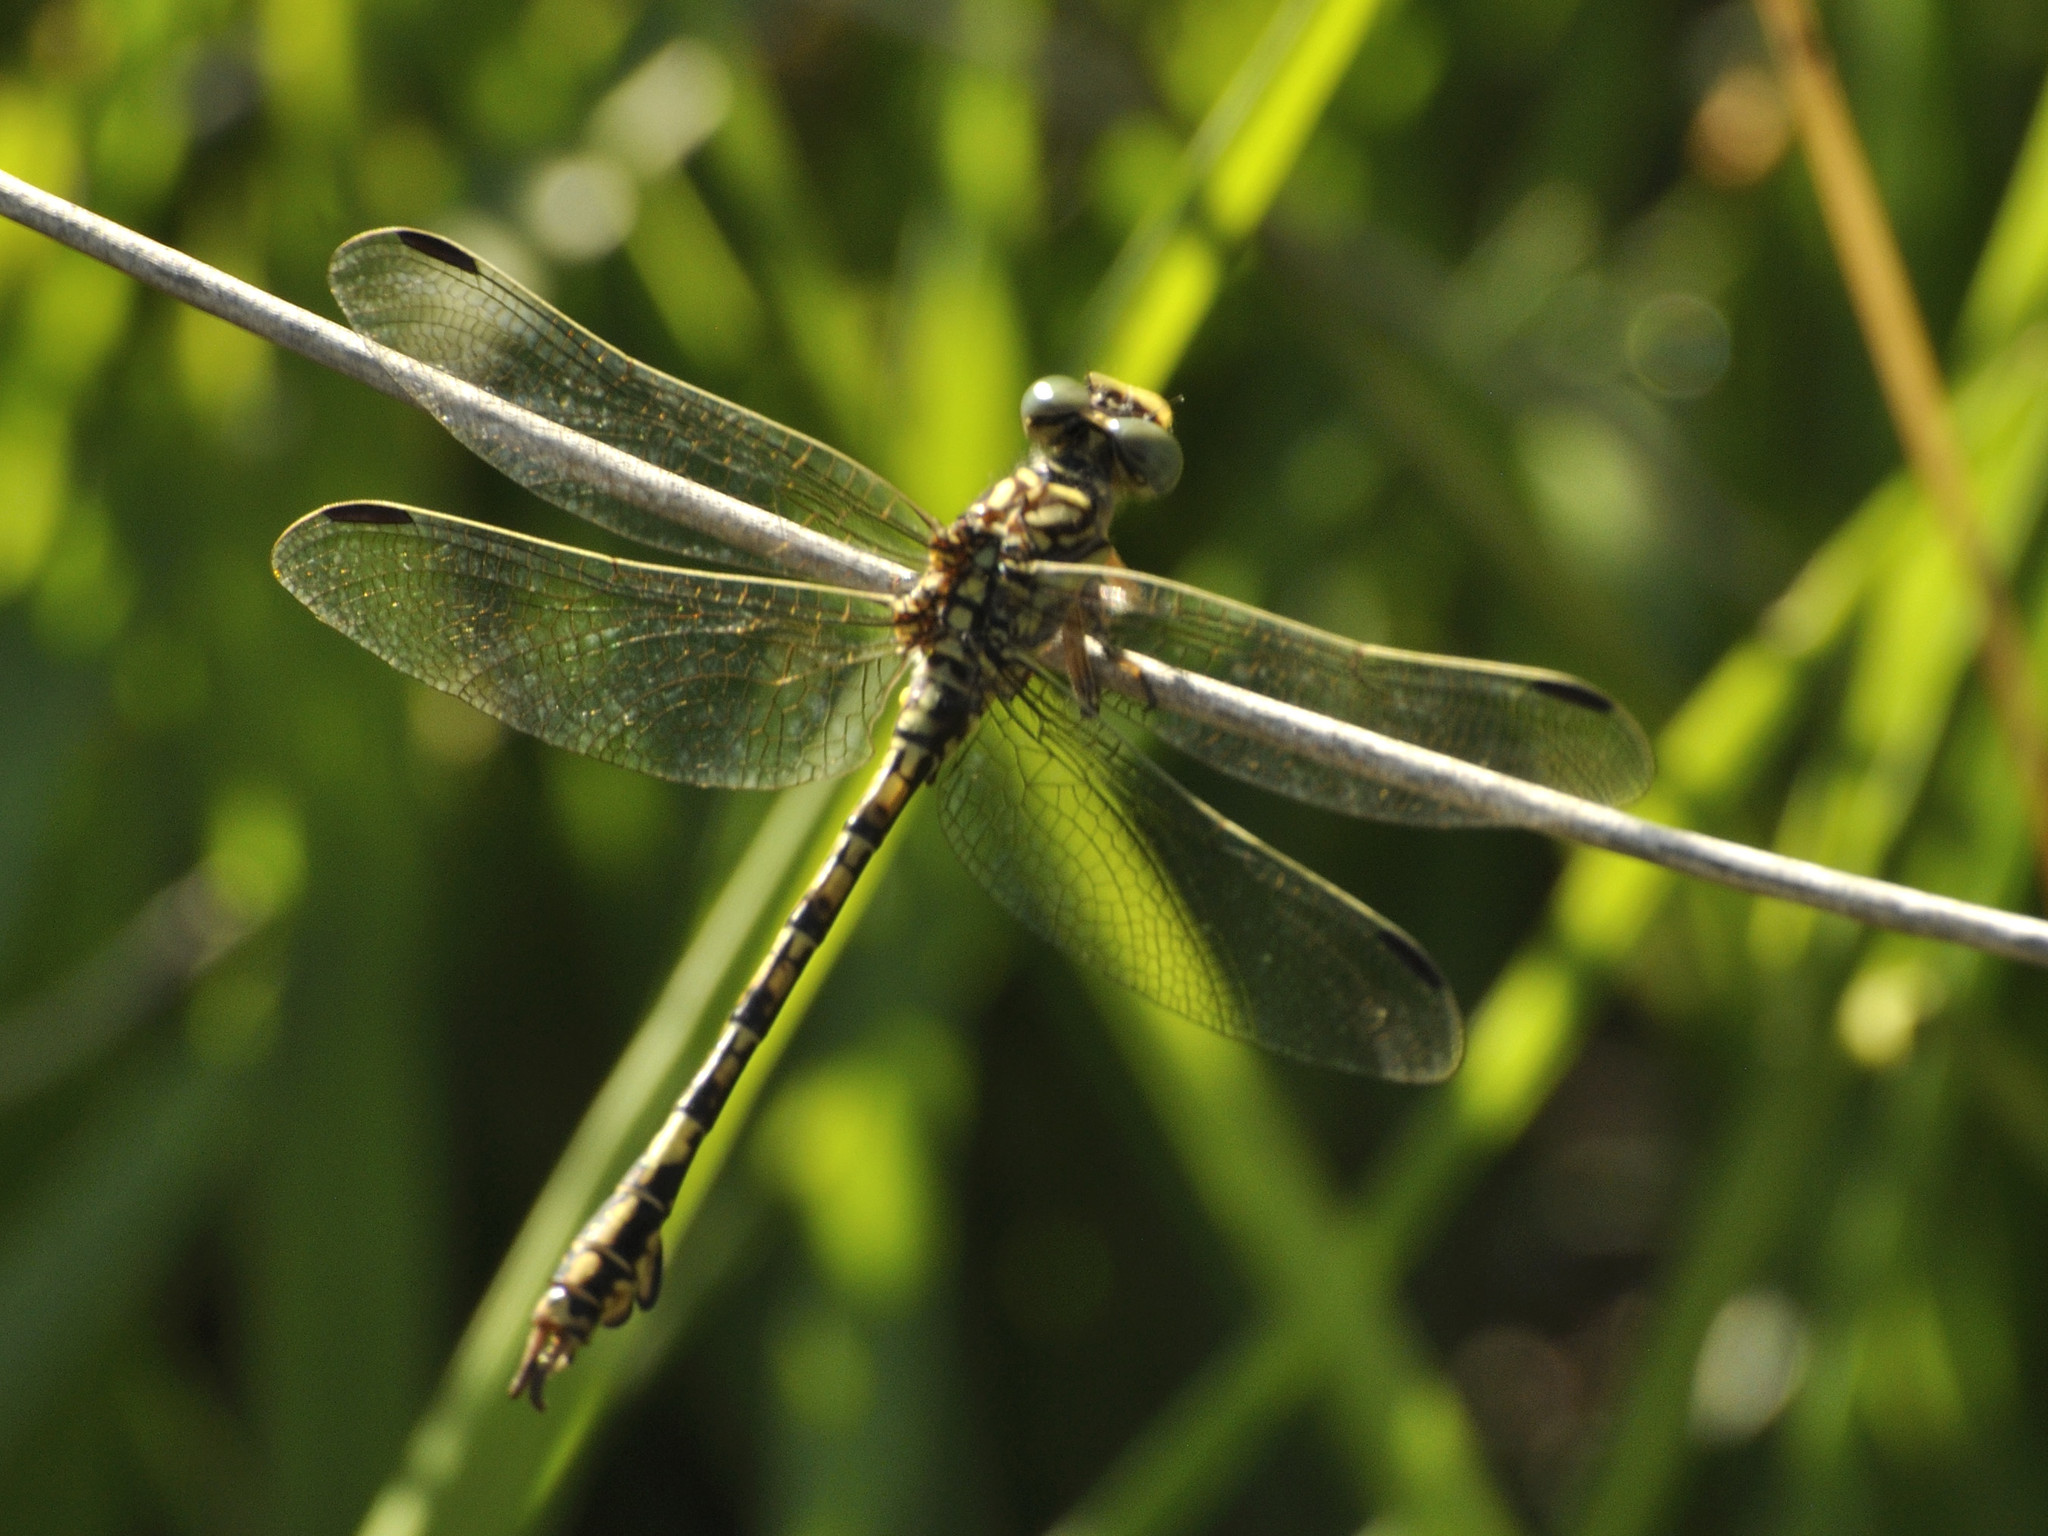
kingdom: Animalia
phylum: Arthropoda
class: Insecta
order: Odonata
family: Gomphidae
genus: Paragomphus
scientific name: Paragomphus cognatus
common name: Boulder hooktail
